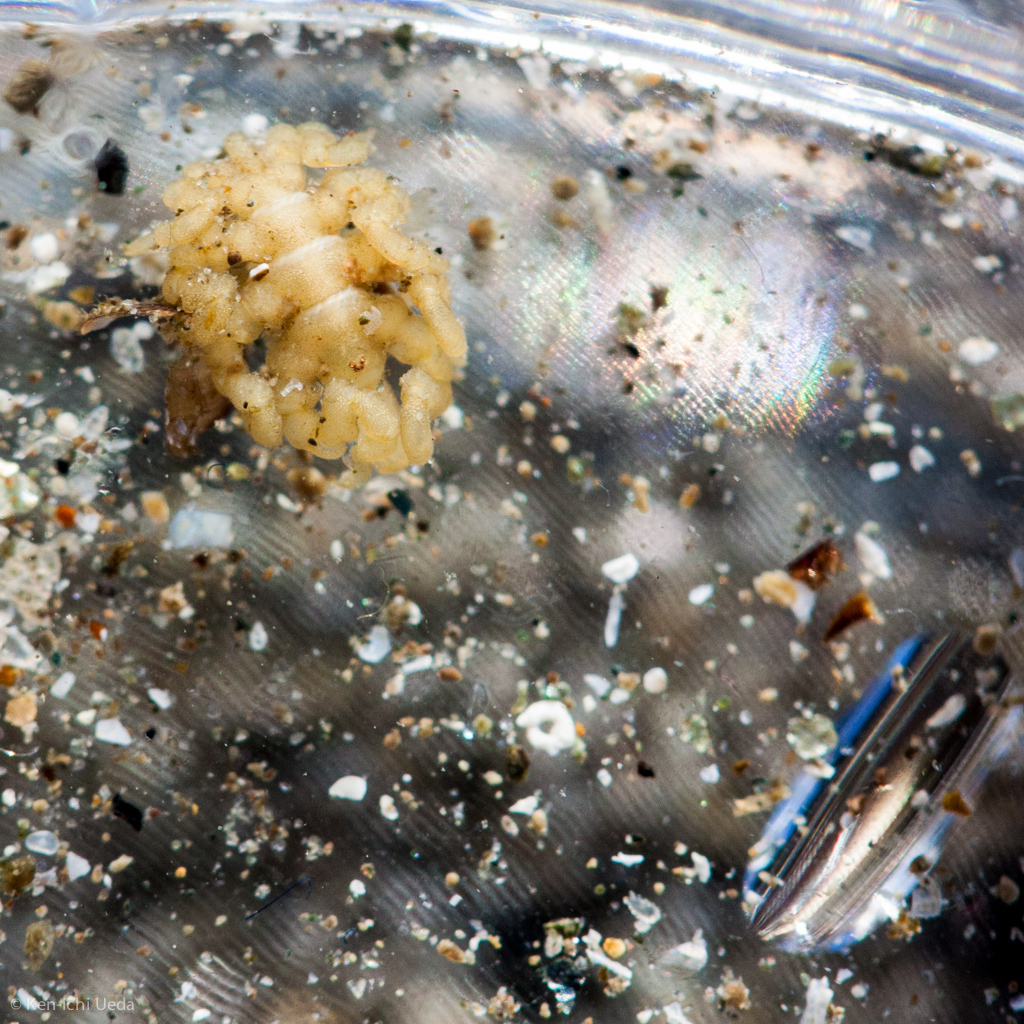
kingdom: Animalia
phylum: Arthropoda
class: Pycnogonida
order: Pantopoda
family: Pycnogonidae
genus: Pycnogonum
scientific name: Pycnogonum stearnsi
